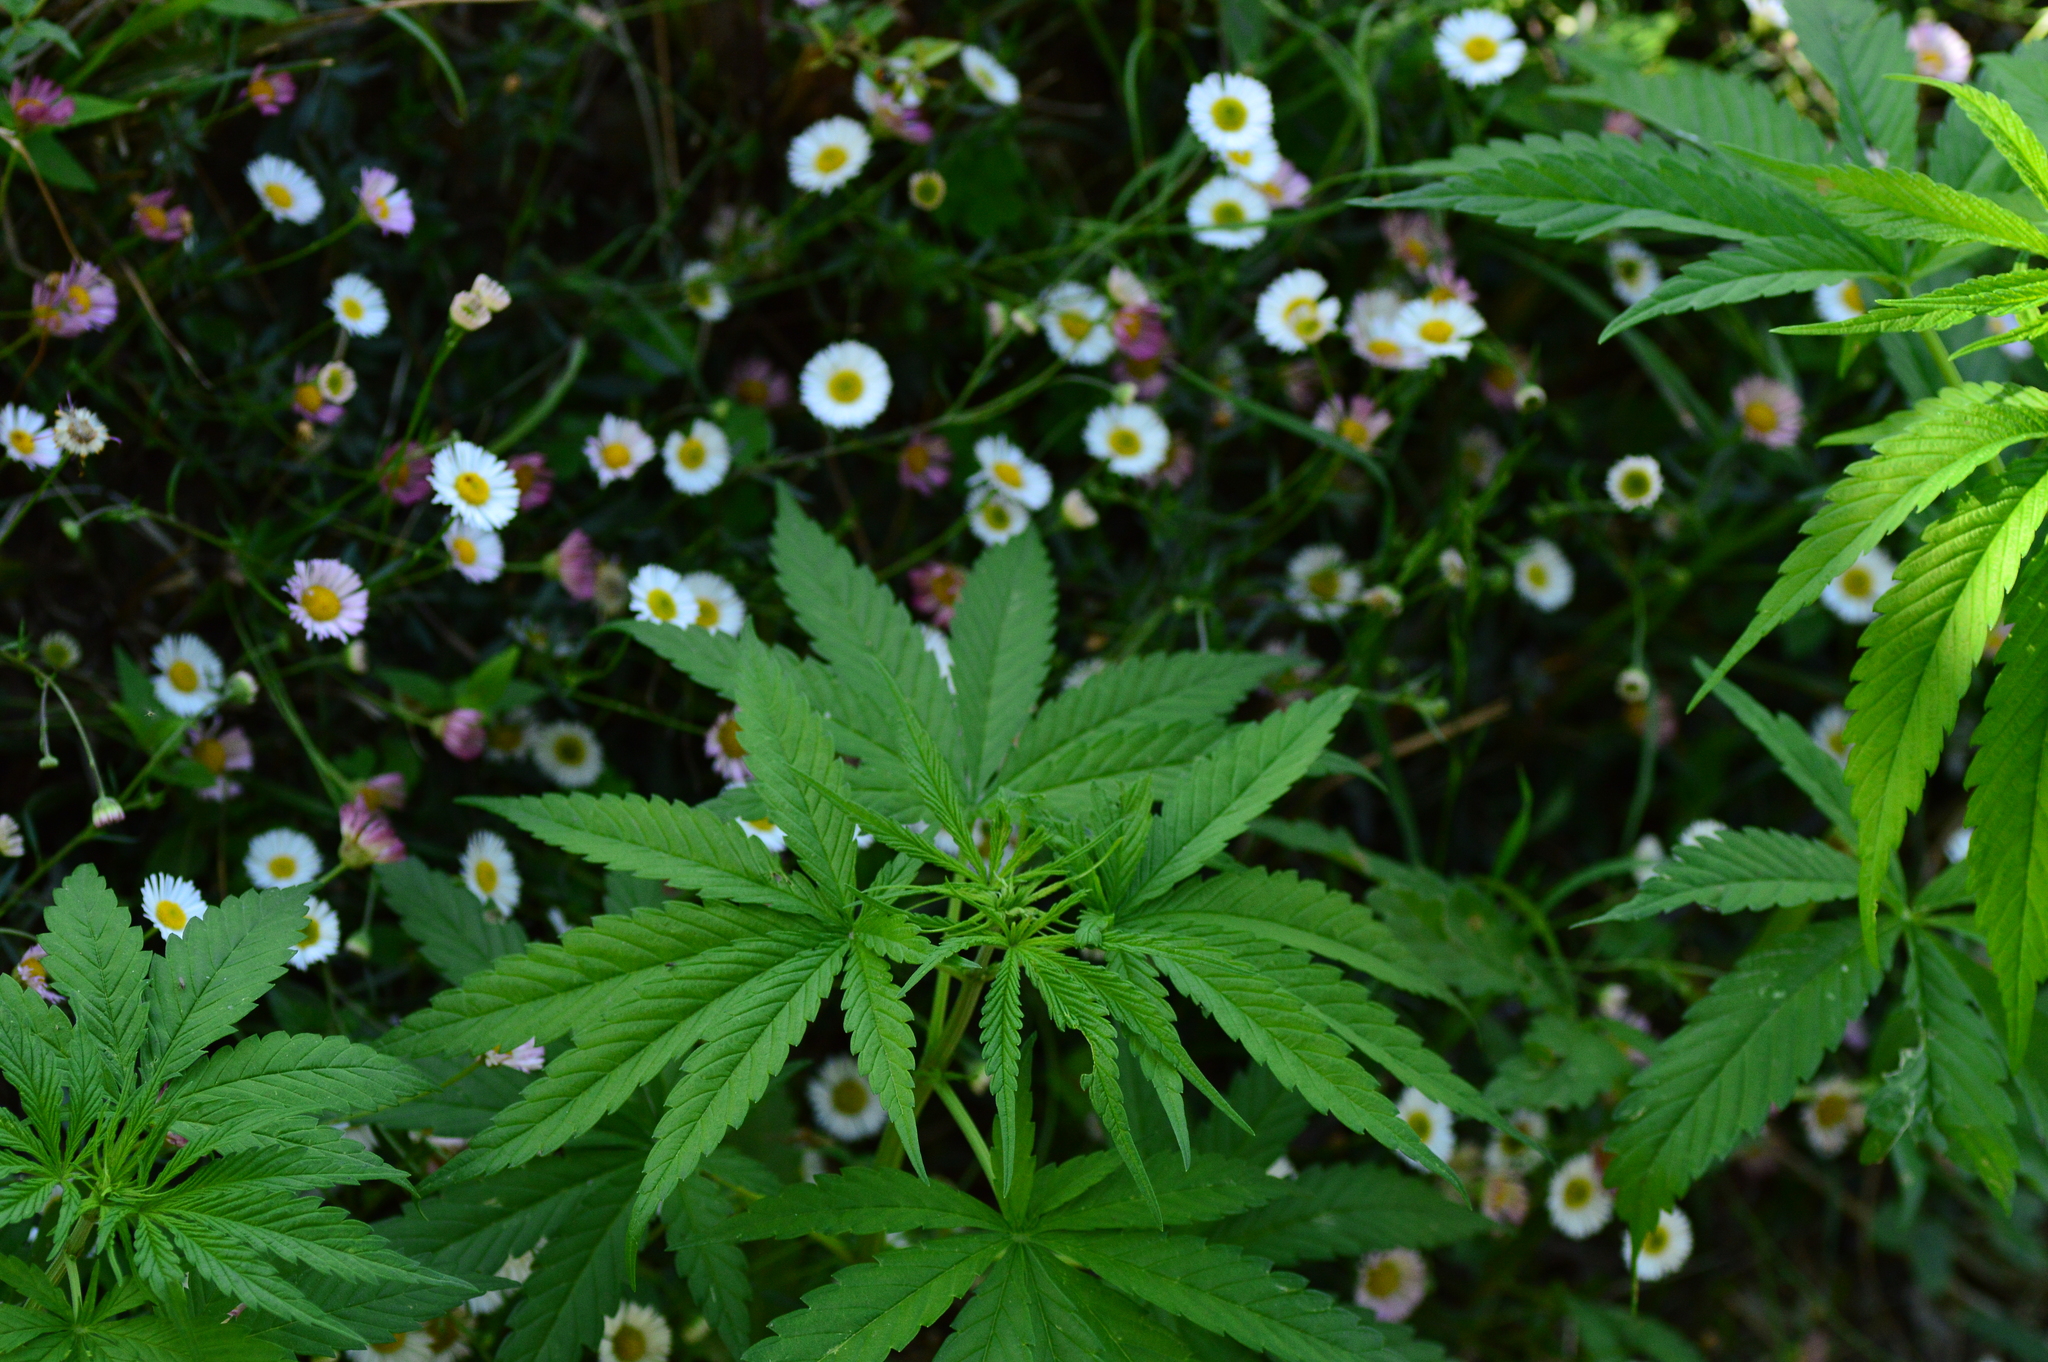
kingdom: Plantae
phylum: Tracheophyta
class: Magnoliopsida
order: Rosales
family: Cannabaceae
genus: Cannabis
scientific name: Cannabis sativa
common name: Hemp
